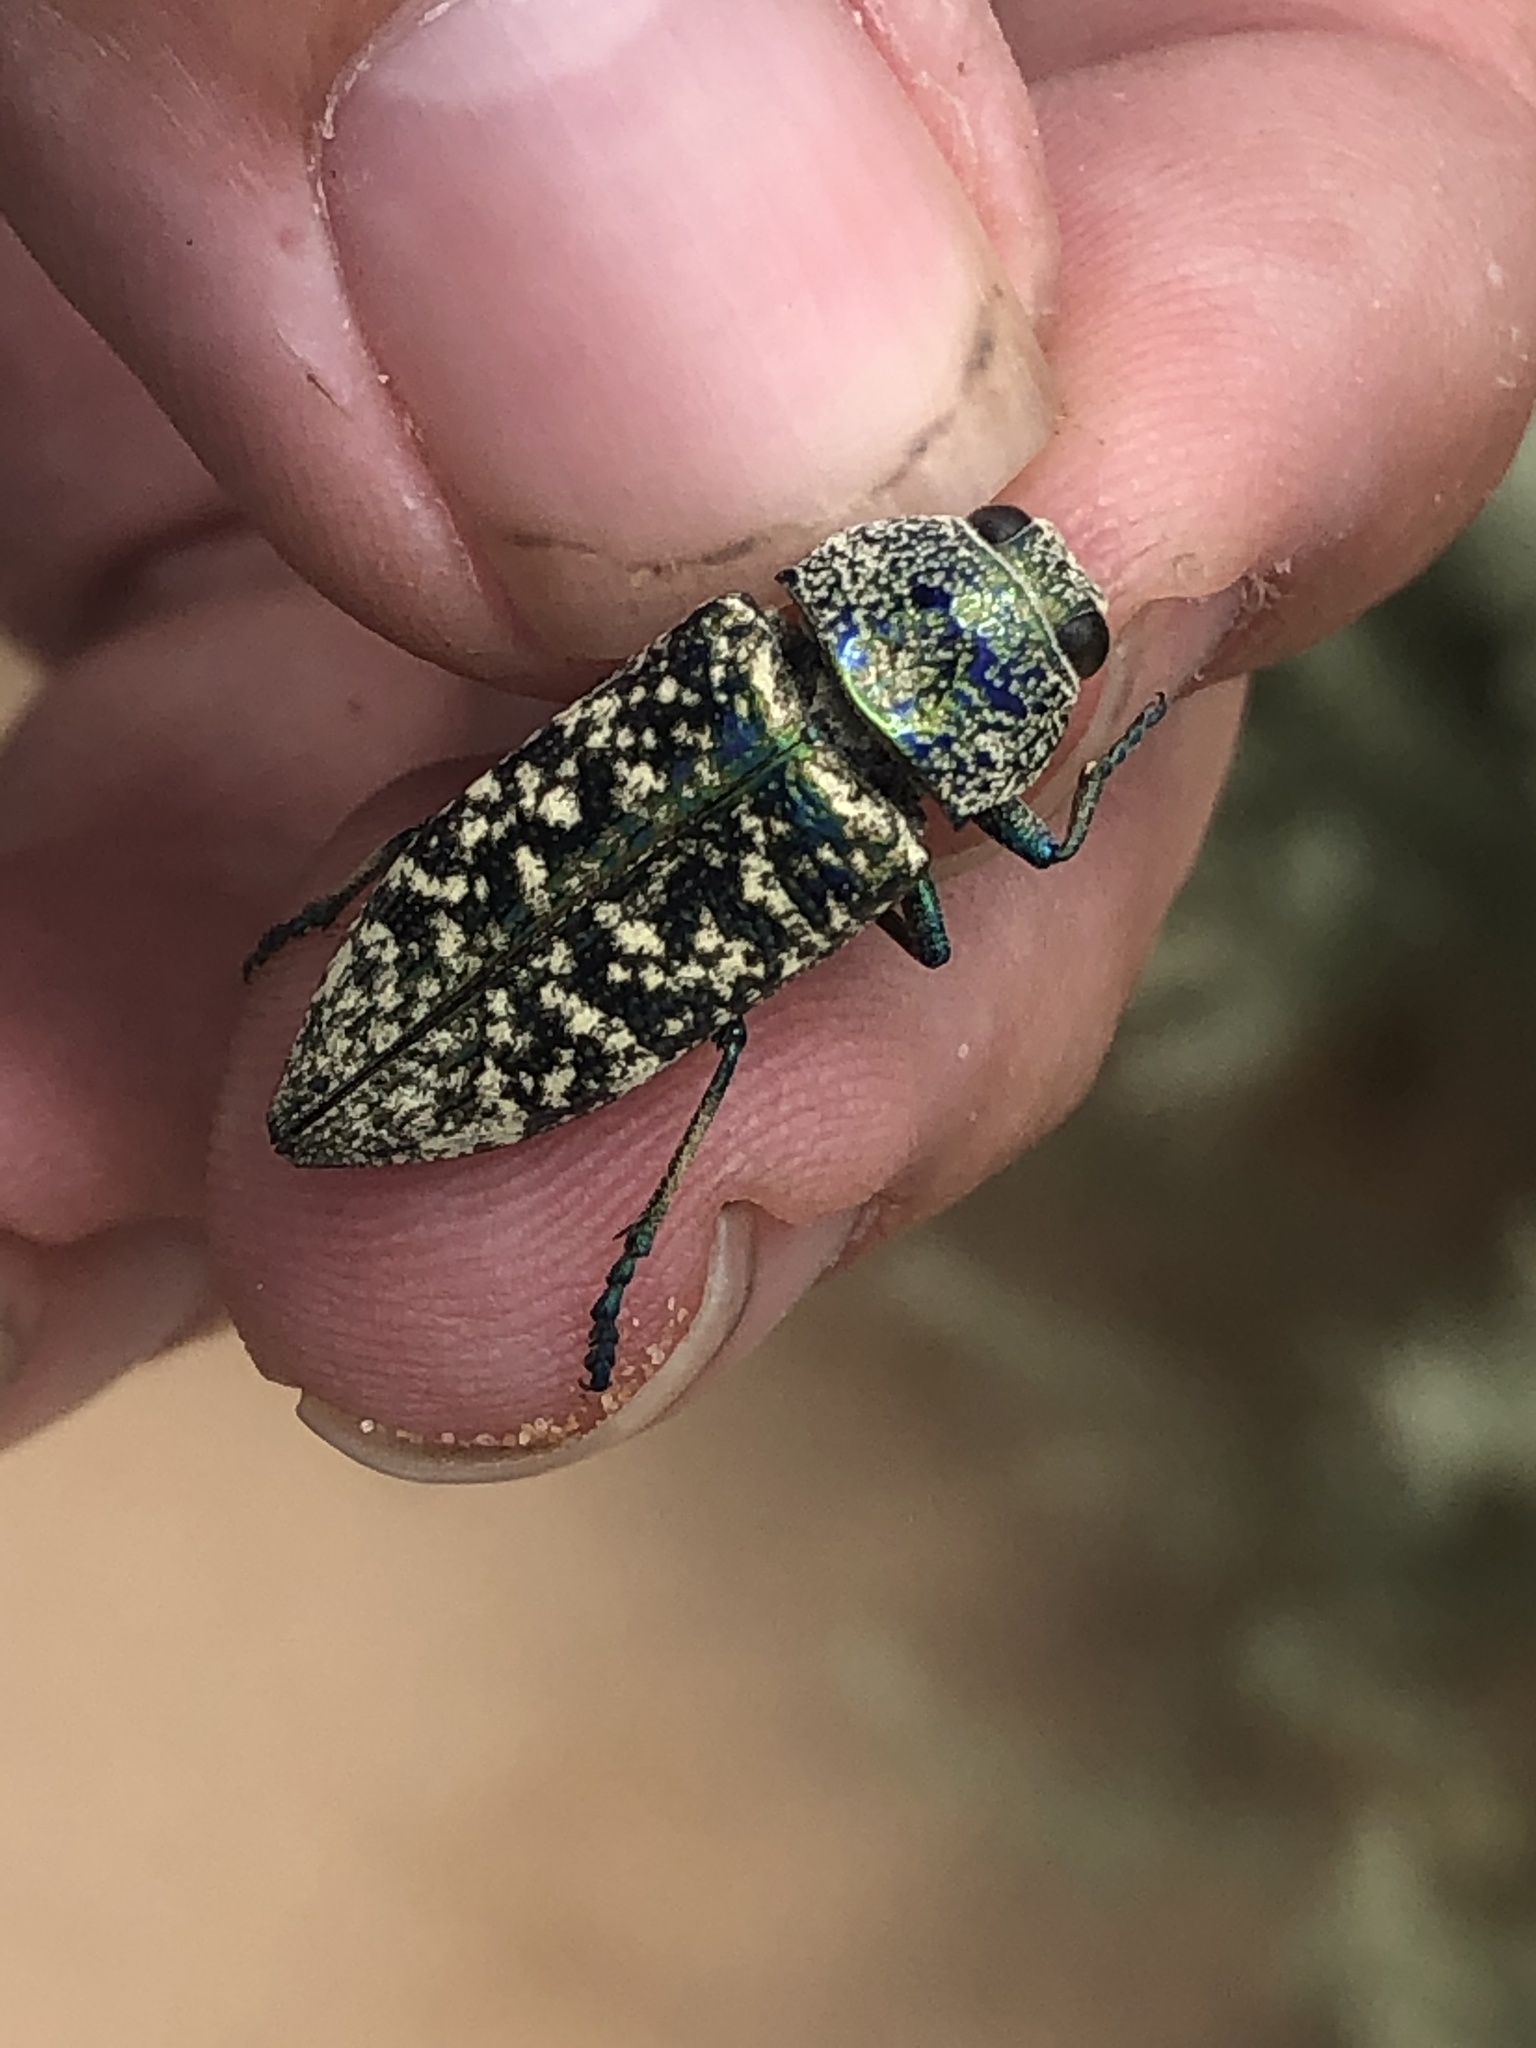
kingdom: Animalia
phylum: Arthropoda
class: Insecta
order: Coleoptera
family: Buprestidae
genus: Lampetis
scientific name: Lampetis drummondi
